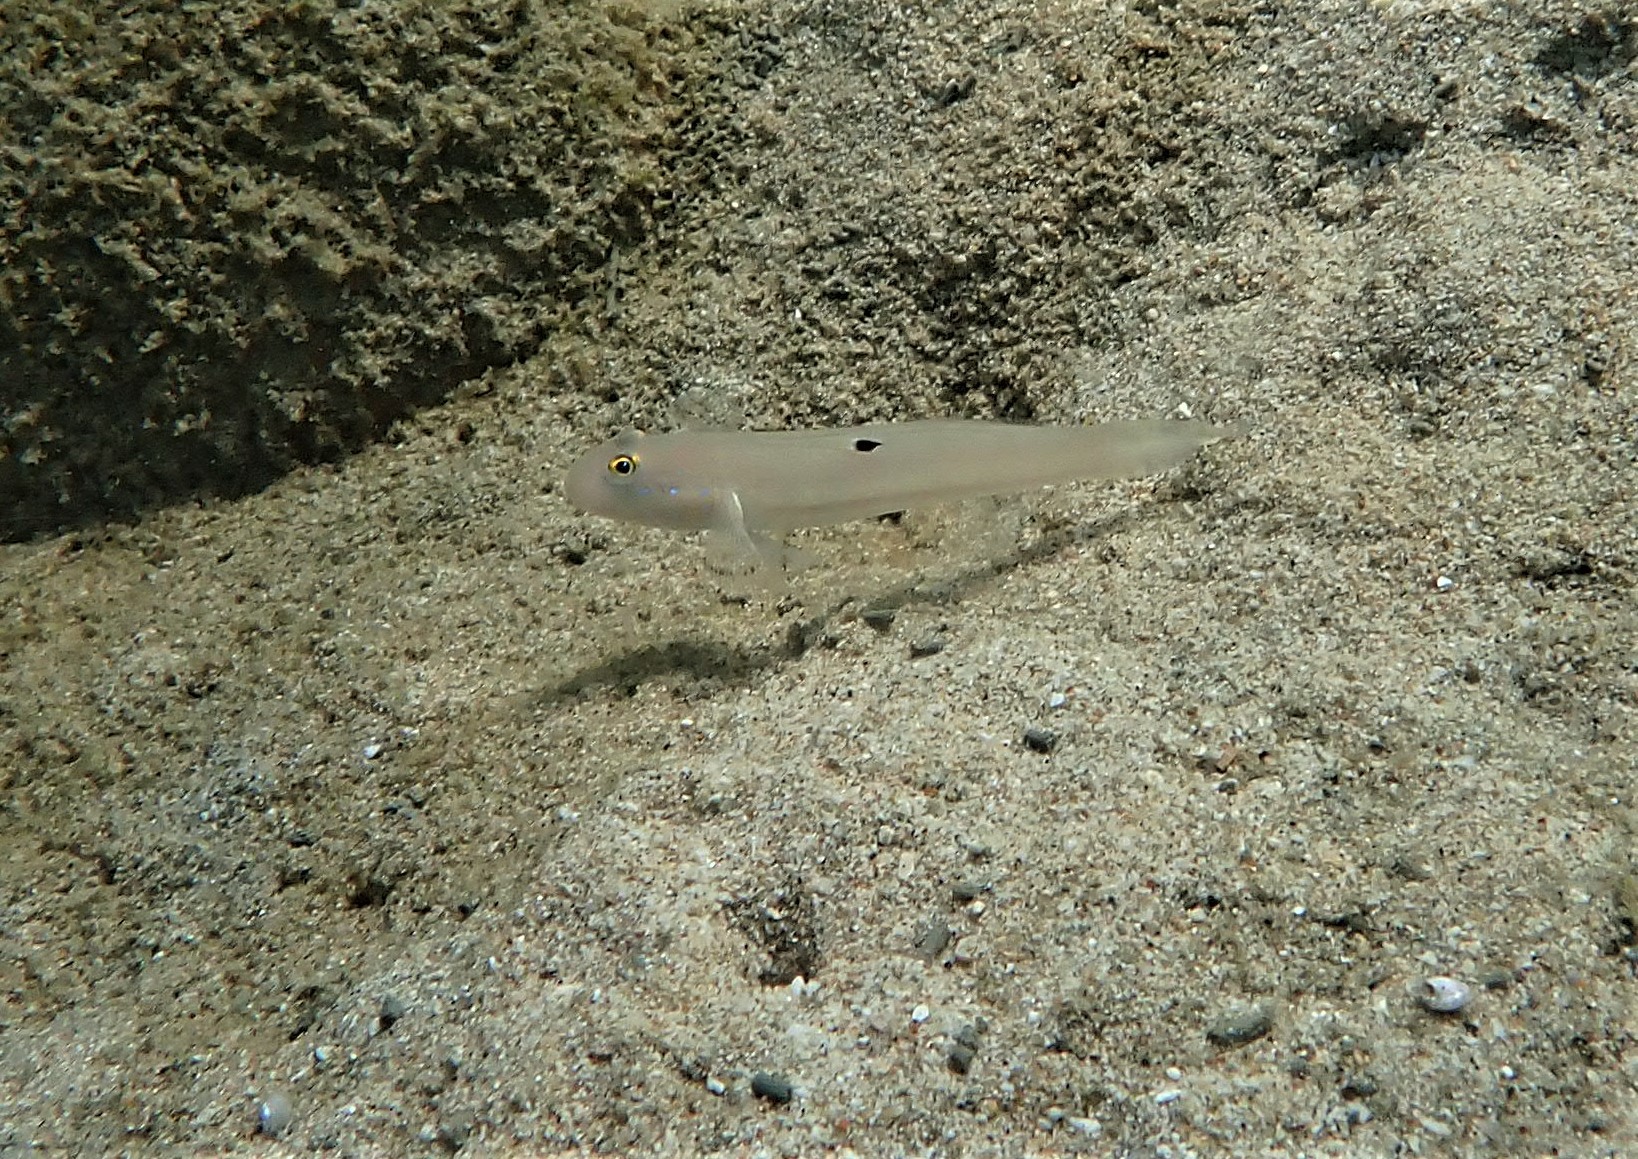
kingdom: Animalia
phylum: Chordata
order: Perciformes
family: Gobiidae
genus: Valenciennea
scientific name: Valenciennea sexguttata
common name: Sixspot goby
